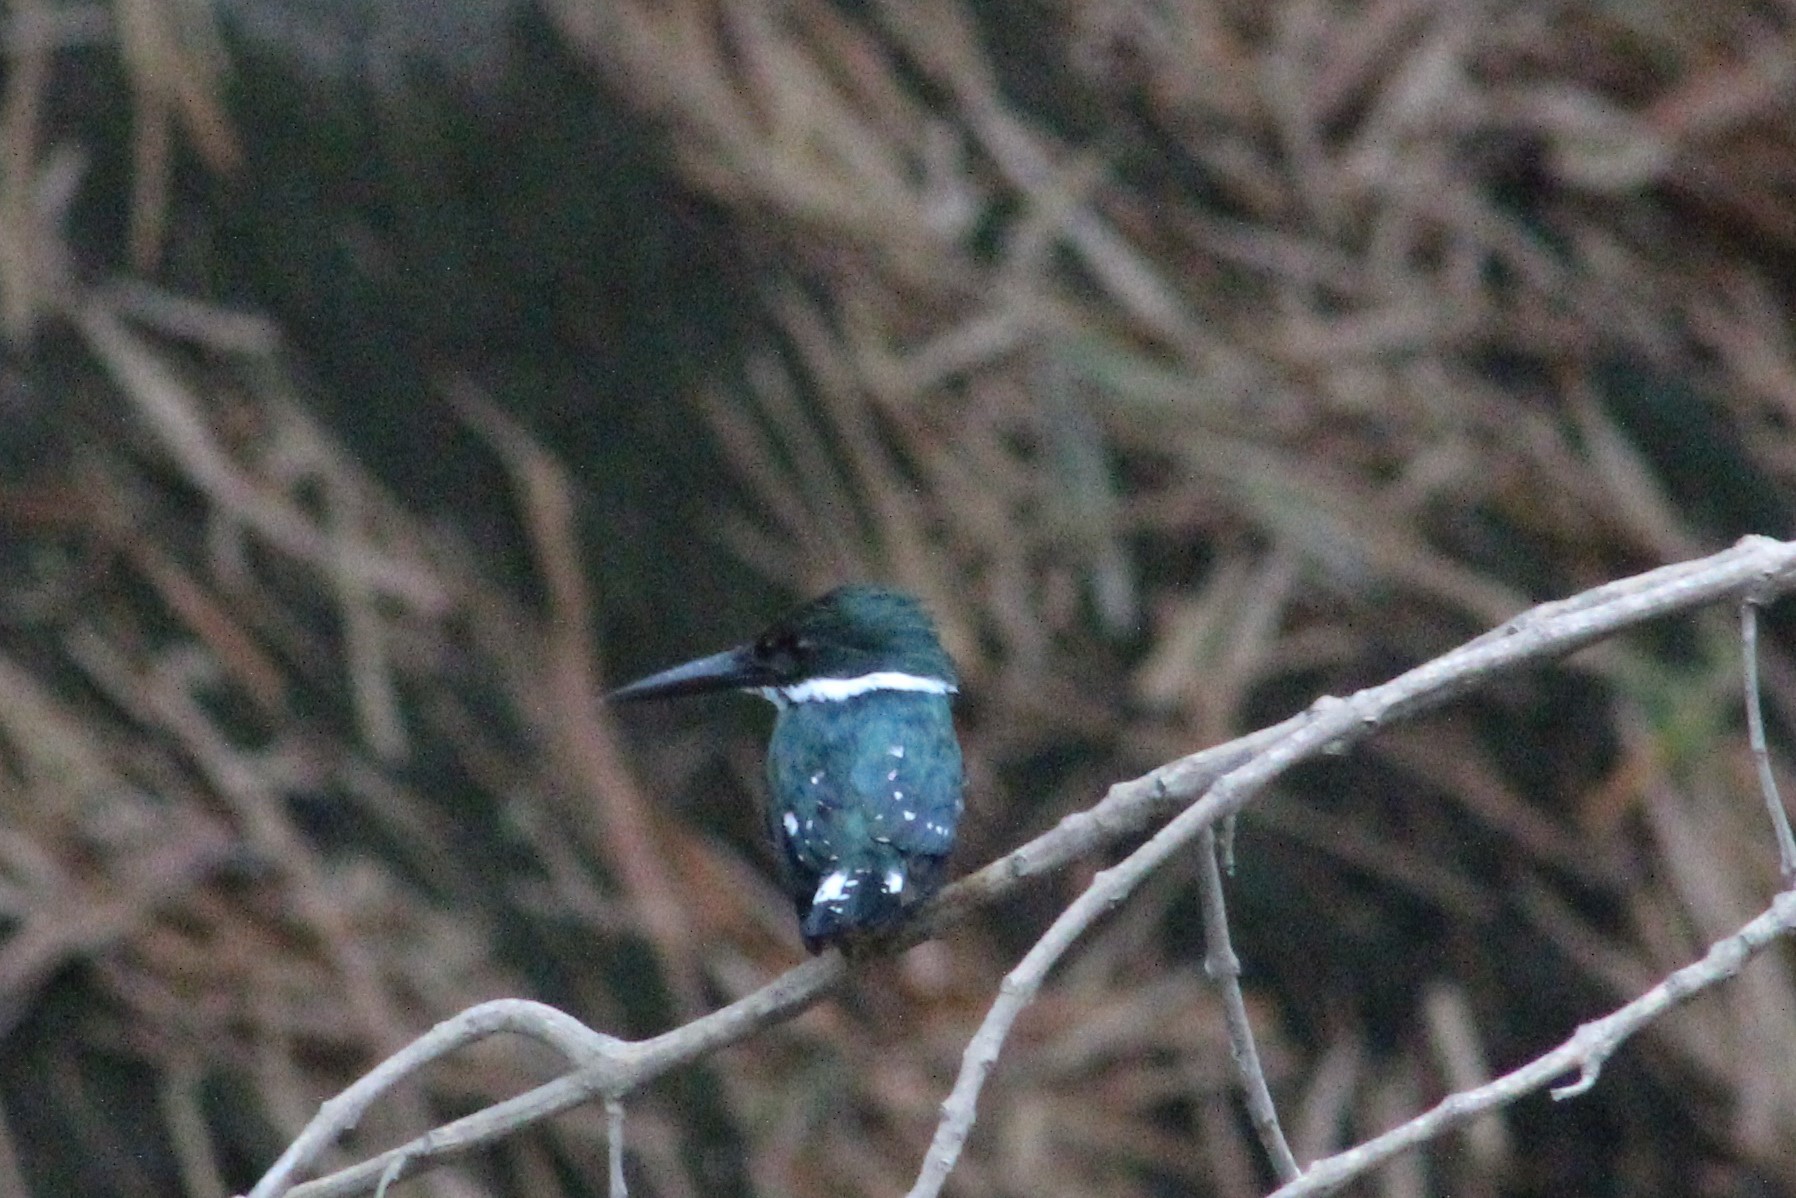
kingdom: Animalia
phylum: Chordata
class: Aves
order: Coraciiformes
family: Alcedinidae
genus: Chloroceryle
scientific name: Chloroceryle americana
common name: Green kingfisher
